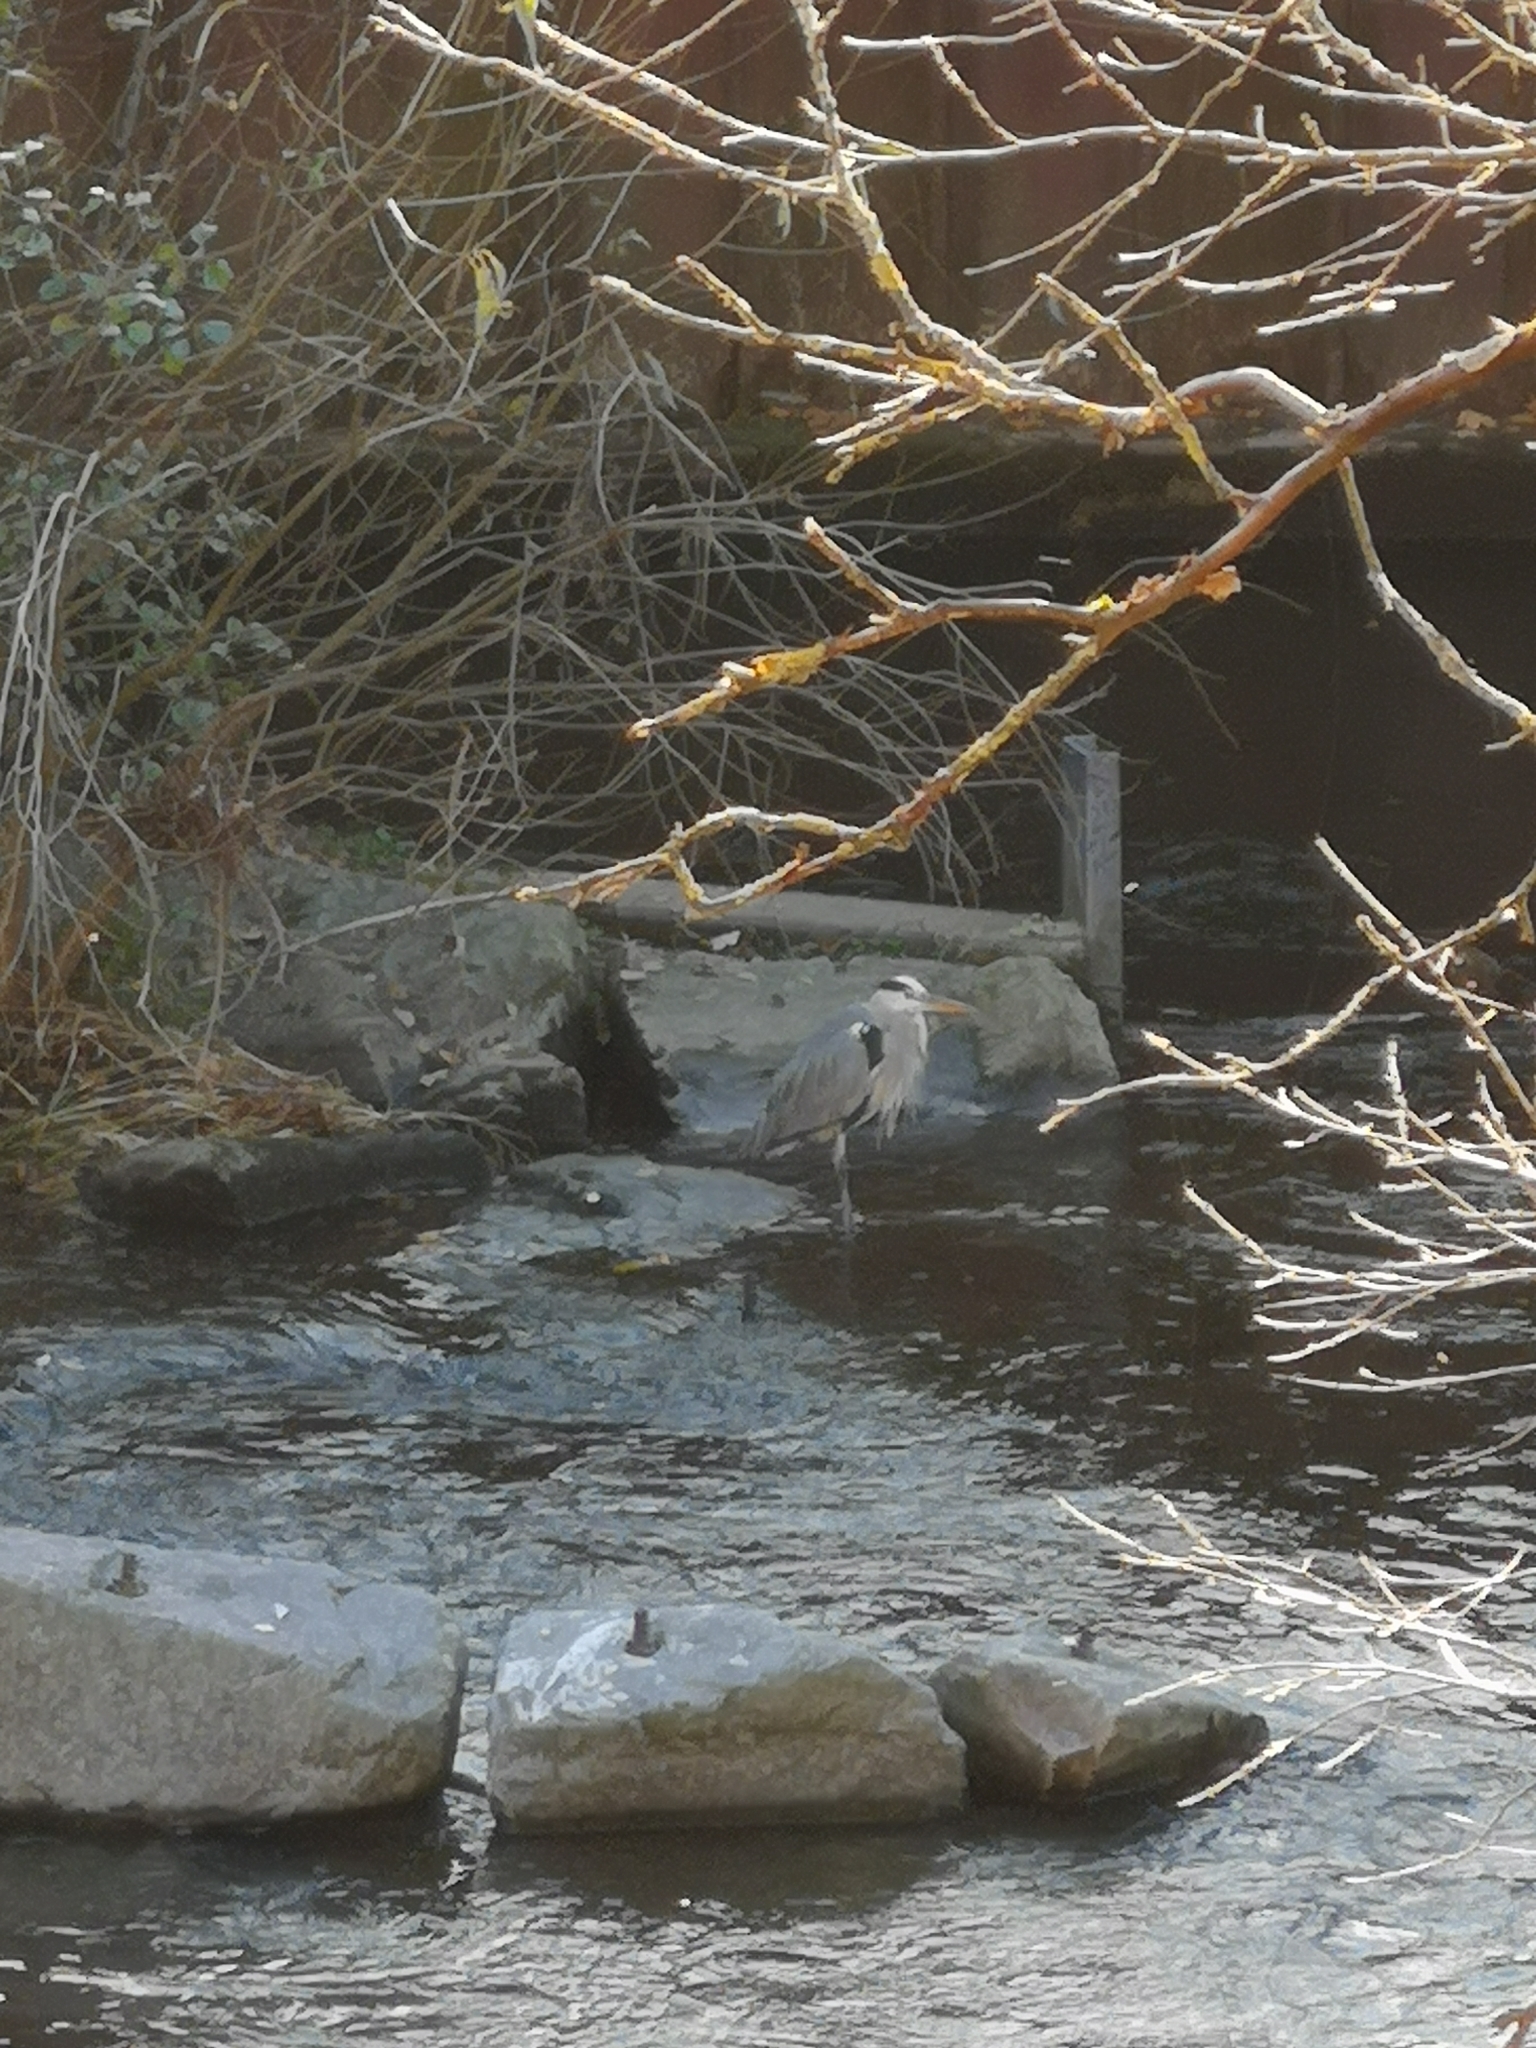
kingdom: Animalia
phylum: Chordata
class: Aves
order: Pelecaniformes
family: Ardeidae
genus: Ardea
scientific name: Ardea cinerea
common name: Grey heron
